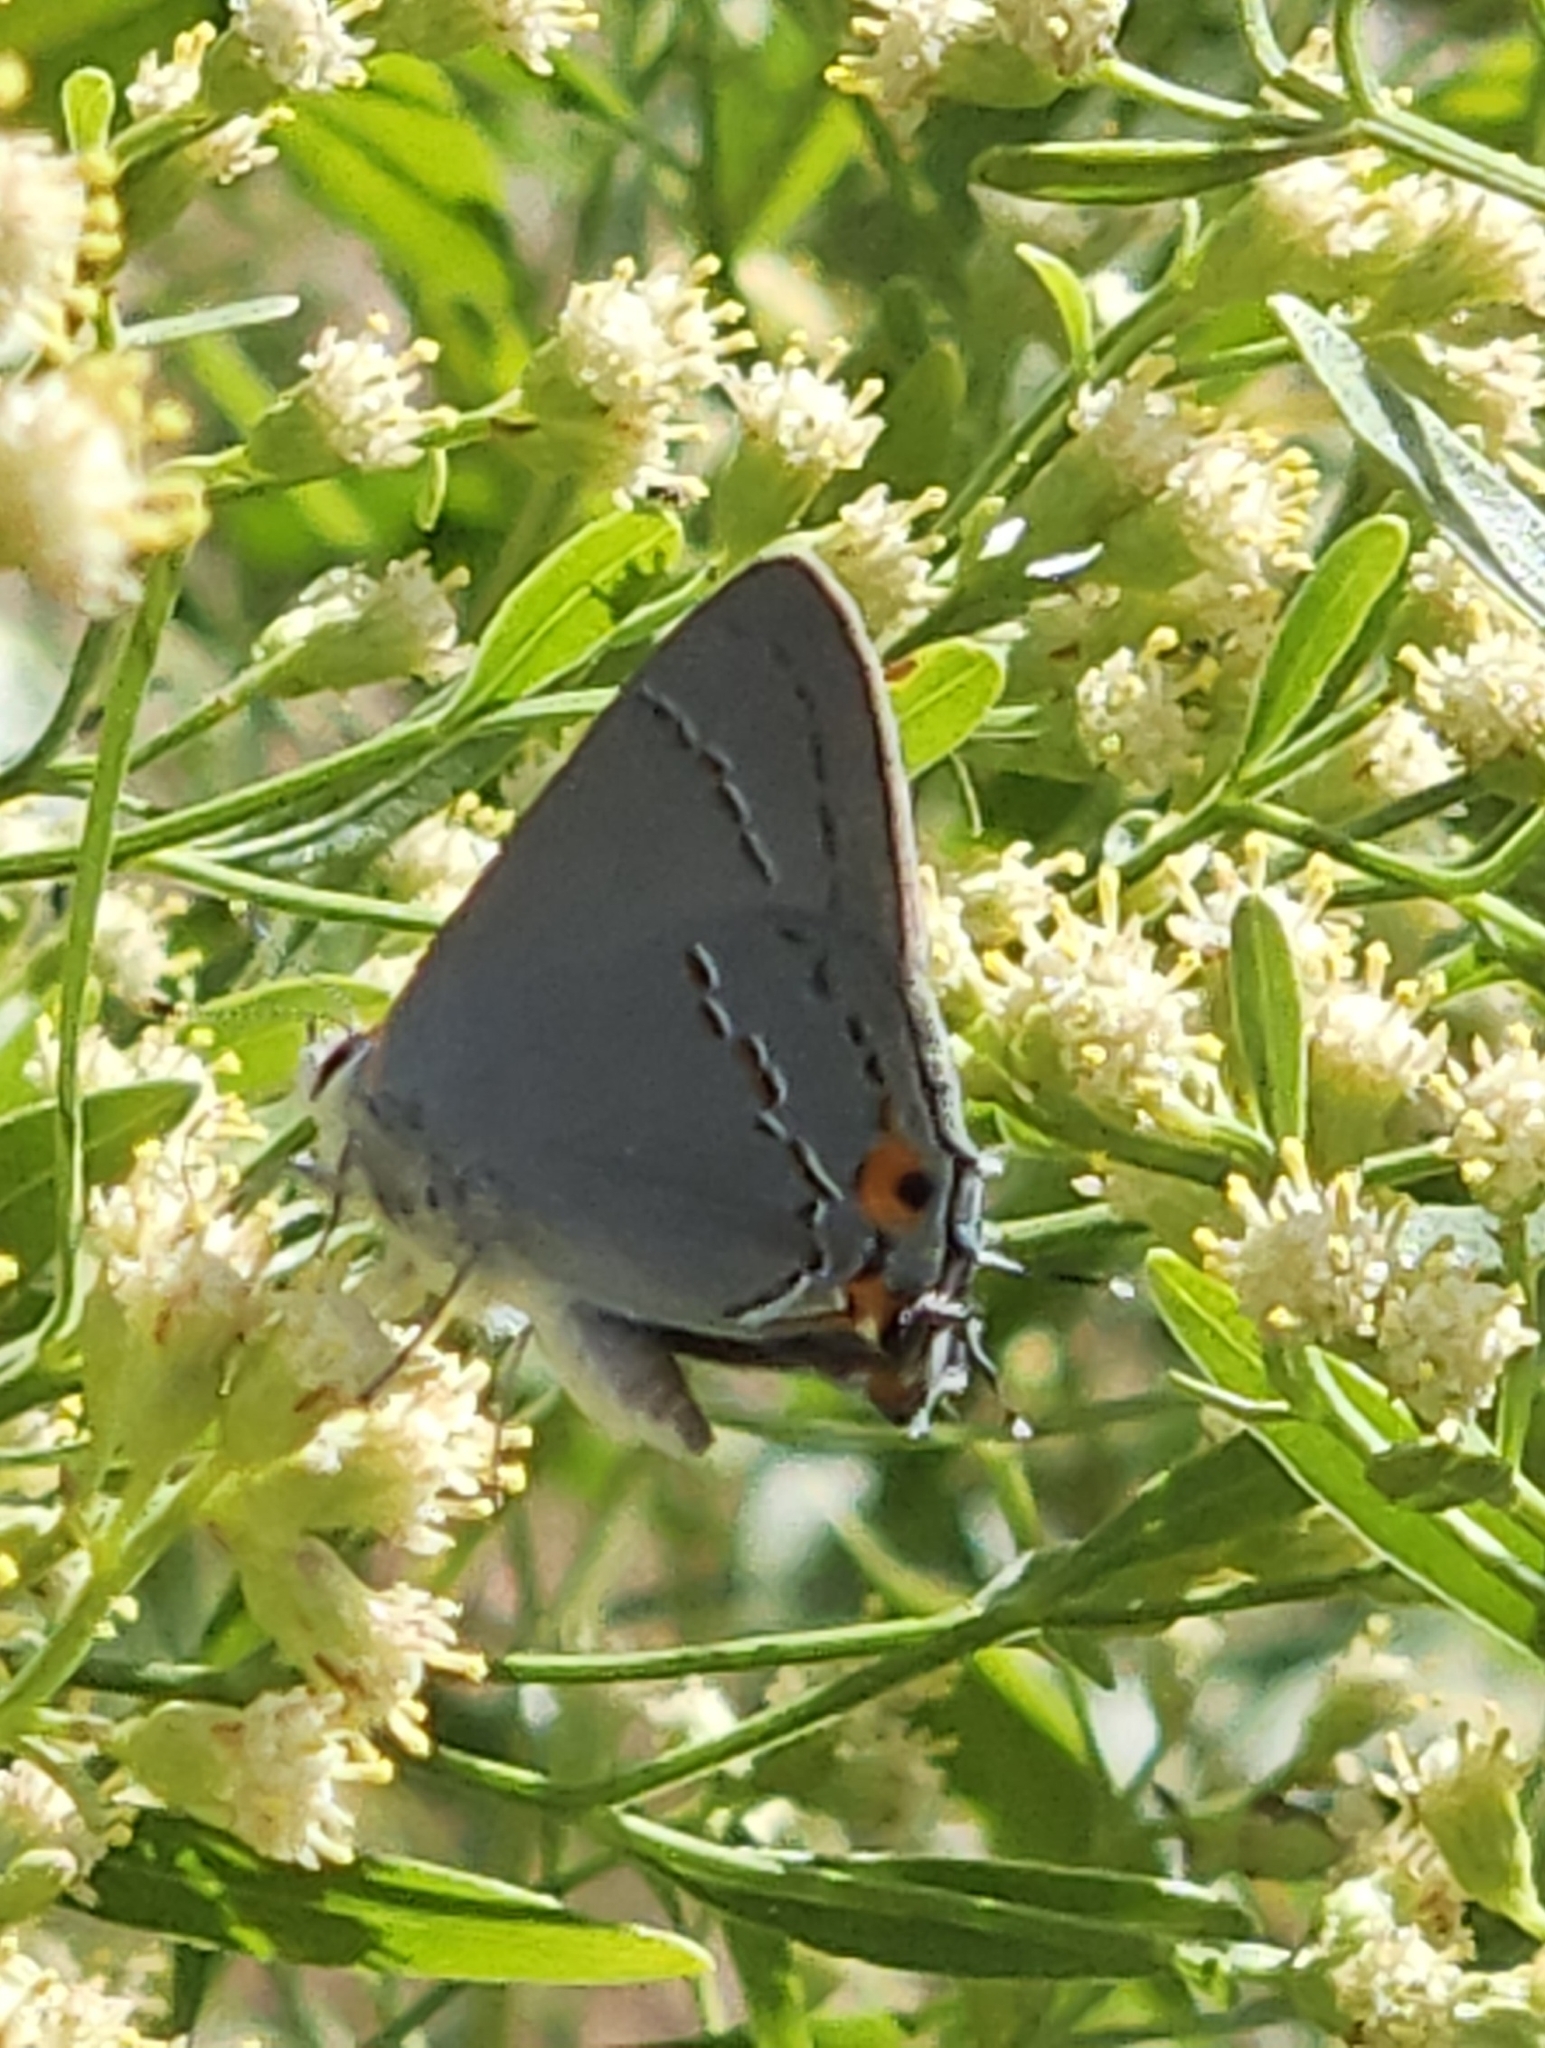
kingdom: Animalia
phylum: Arthropoda
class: Insecta
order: Lepidoptera
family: Lycaenidae
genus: Strymon
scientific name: Strymon melinus
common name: Gray hairstreak
